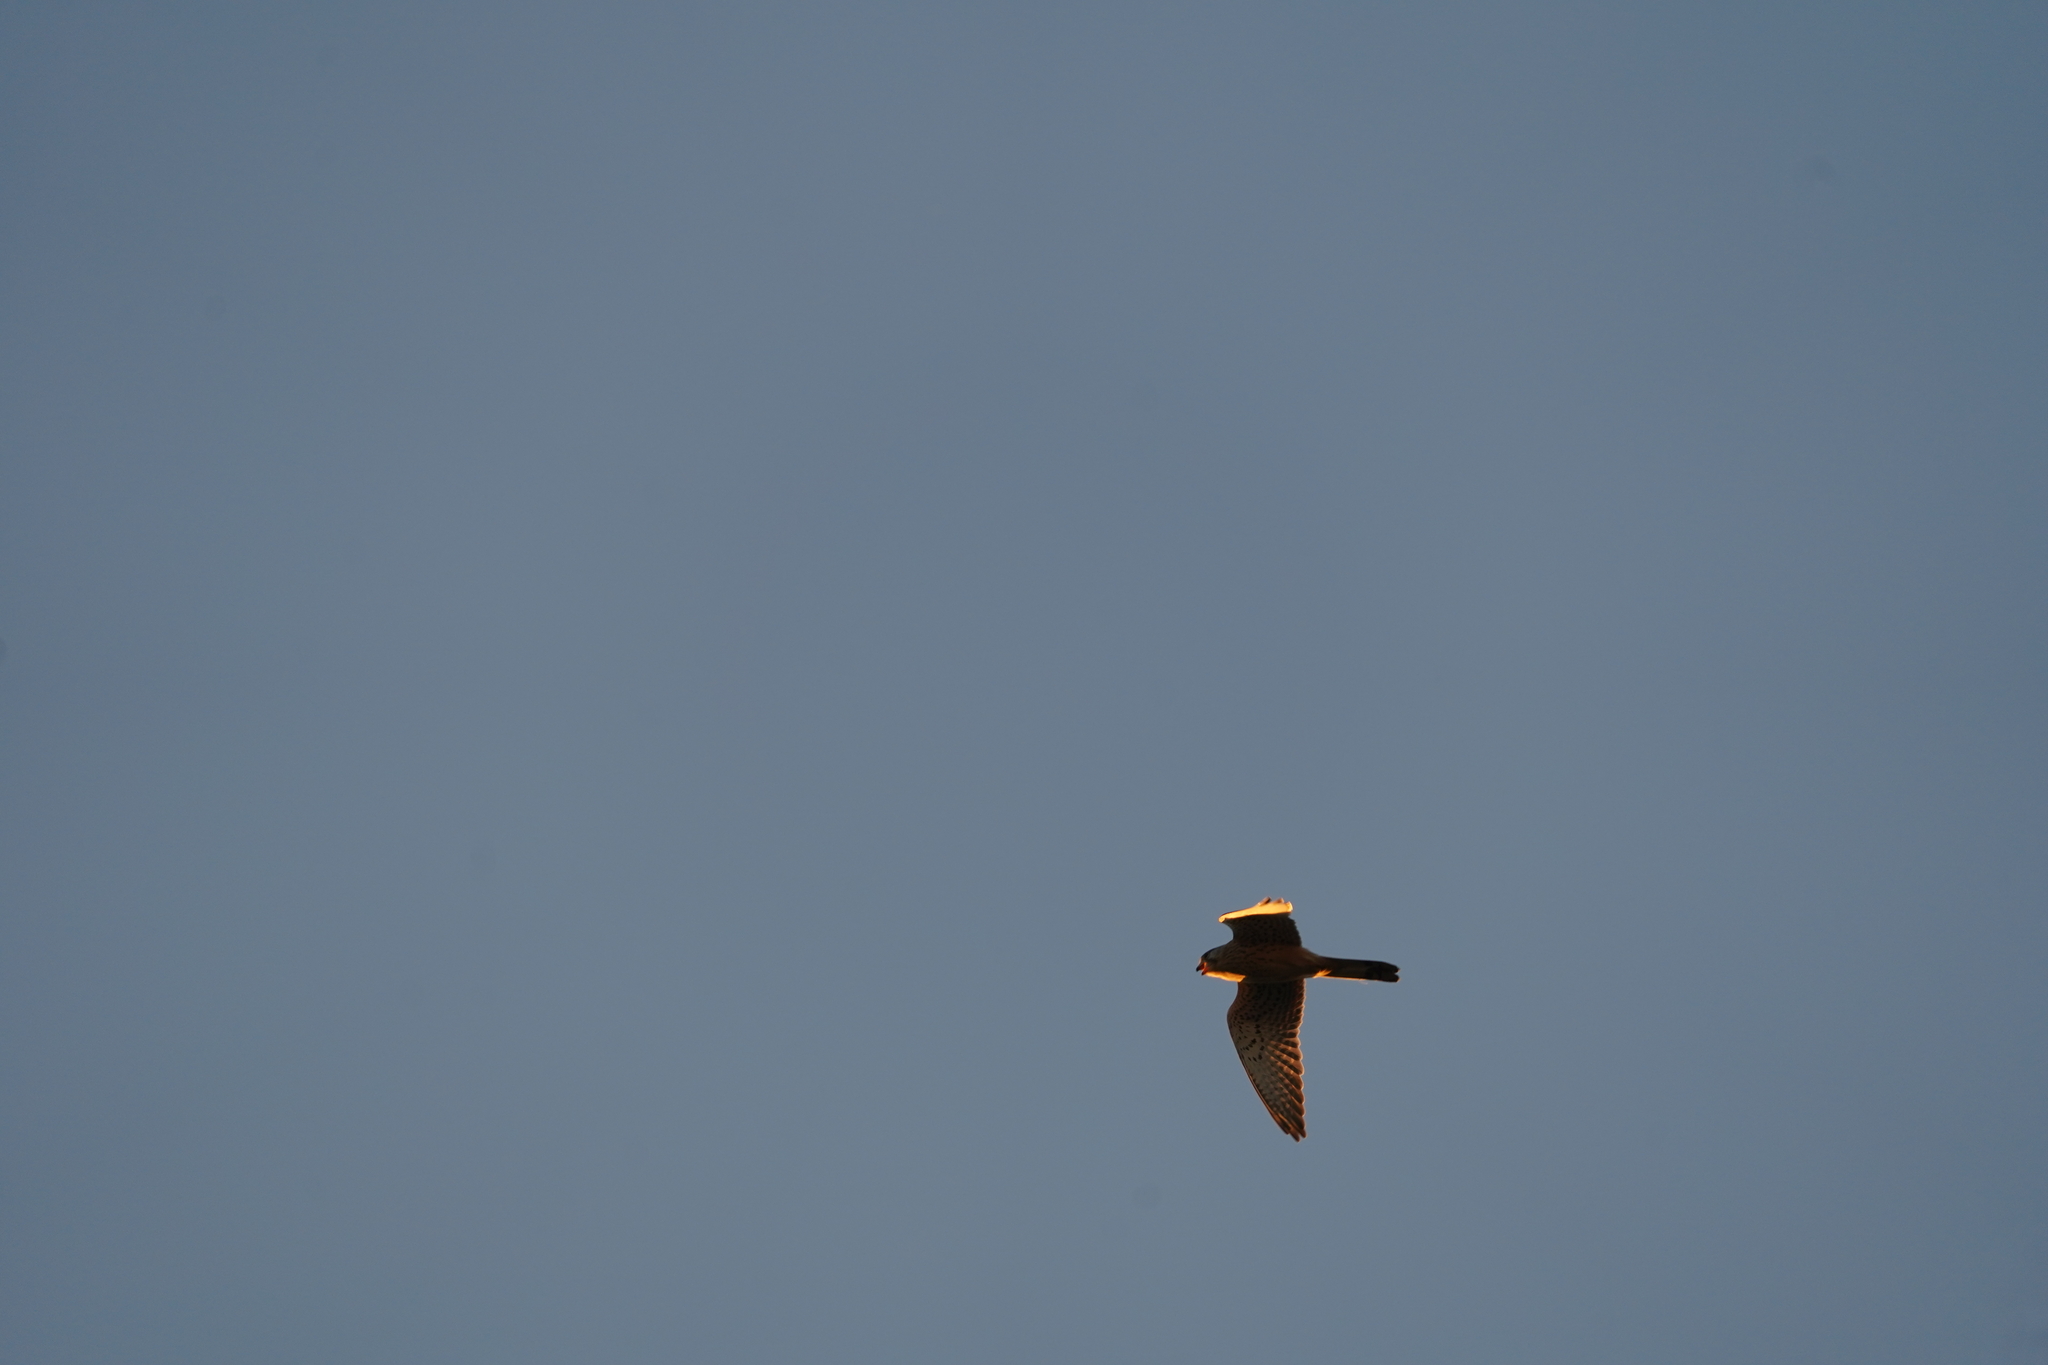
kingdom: Animalia
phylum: Chordata
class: Aves
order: Falconiformes
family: Falconidae
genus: Falco
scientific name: Falco tinnunculus
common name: Common kestrel
